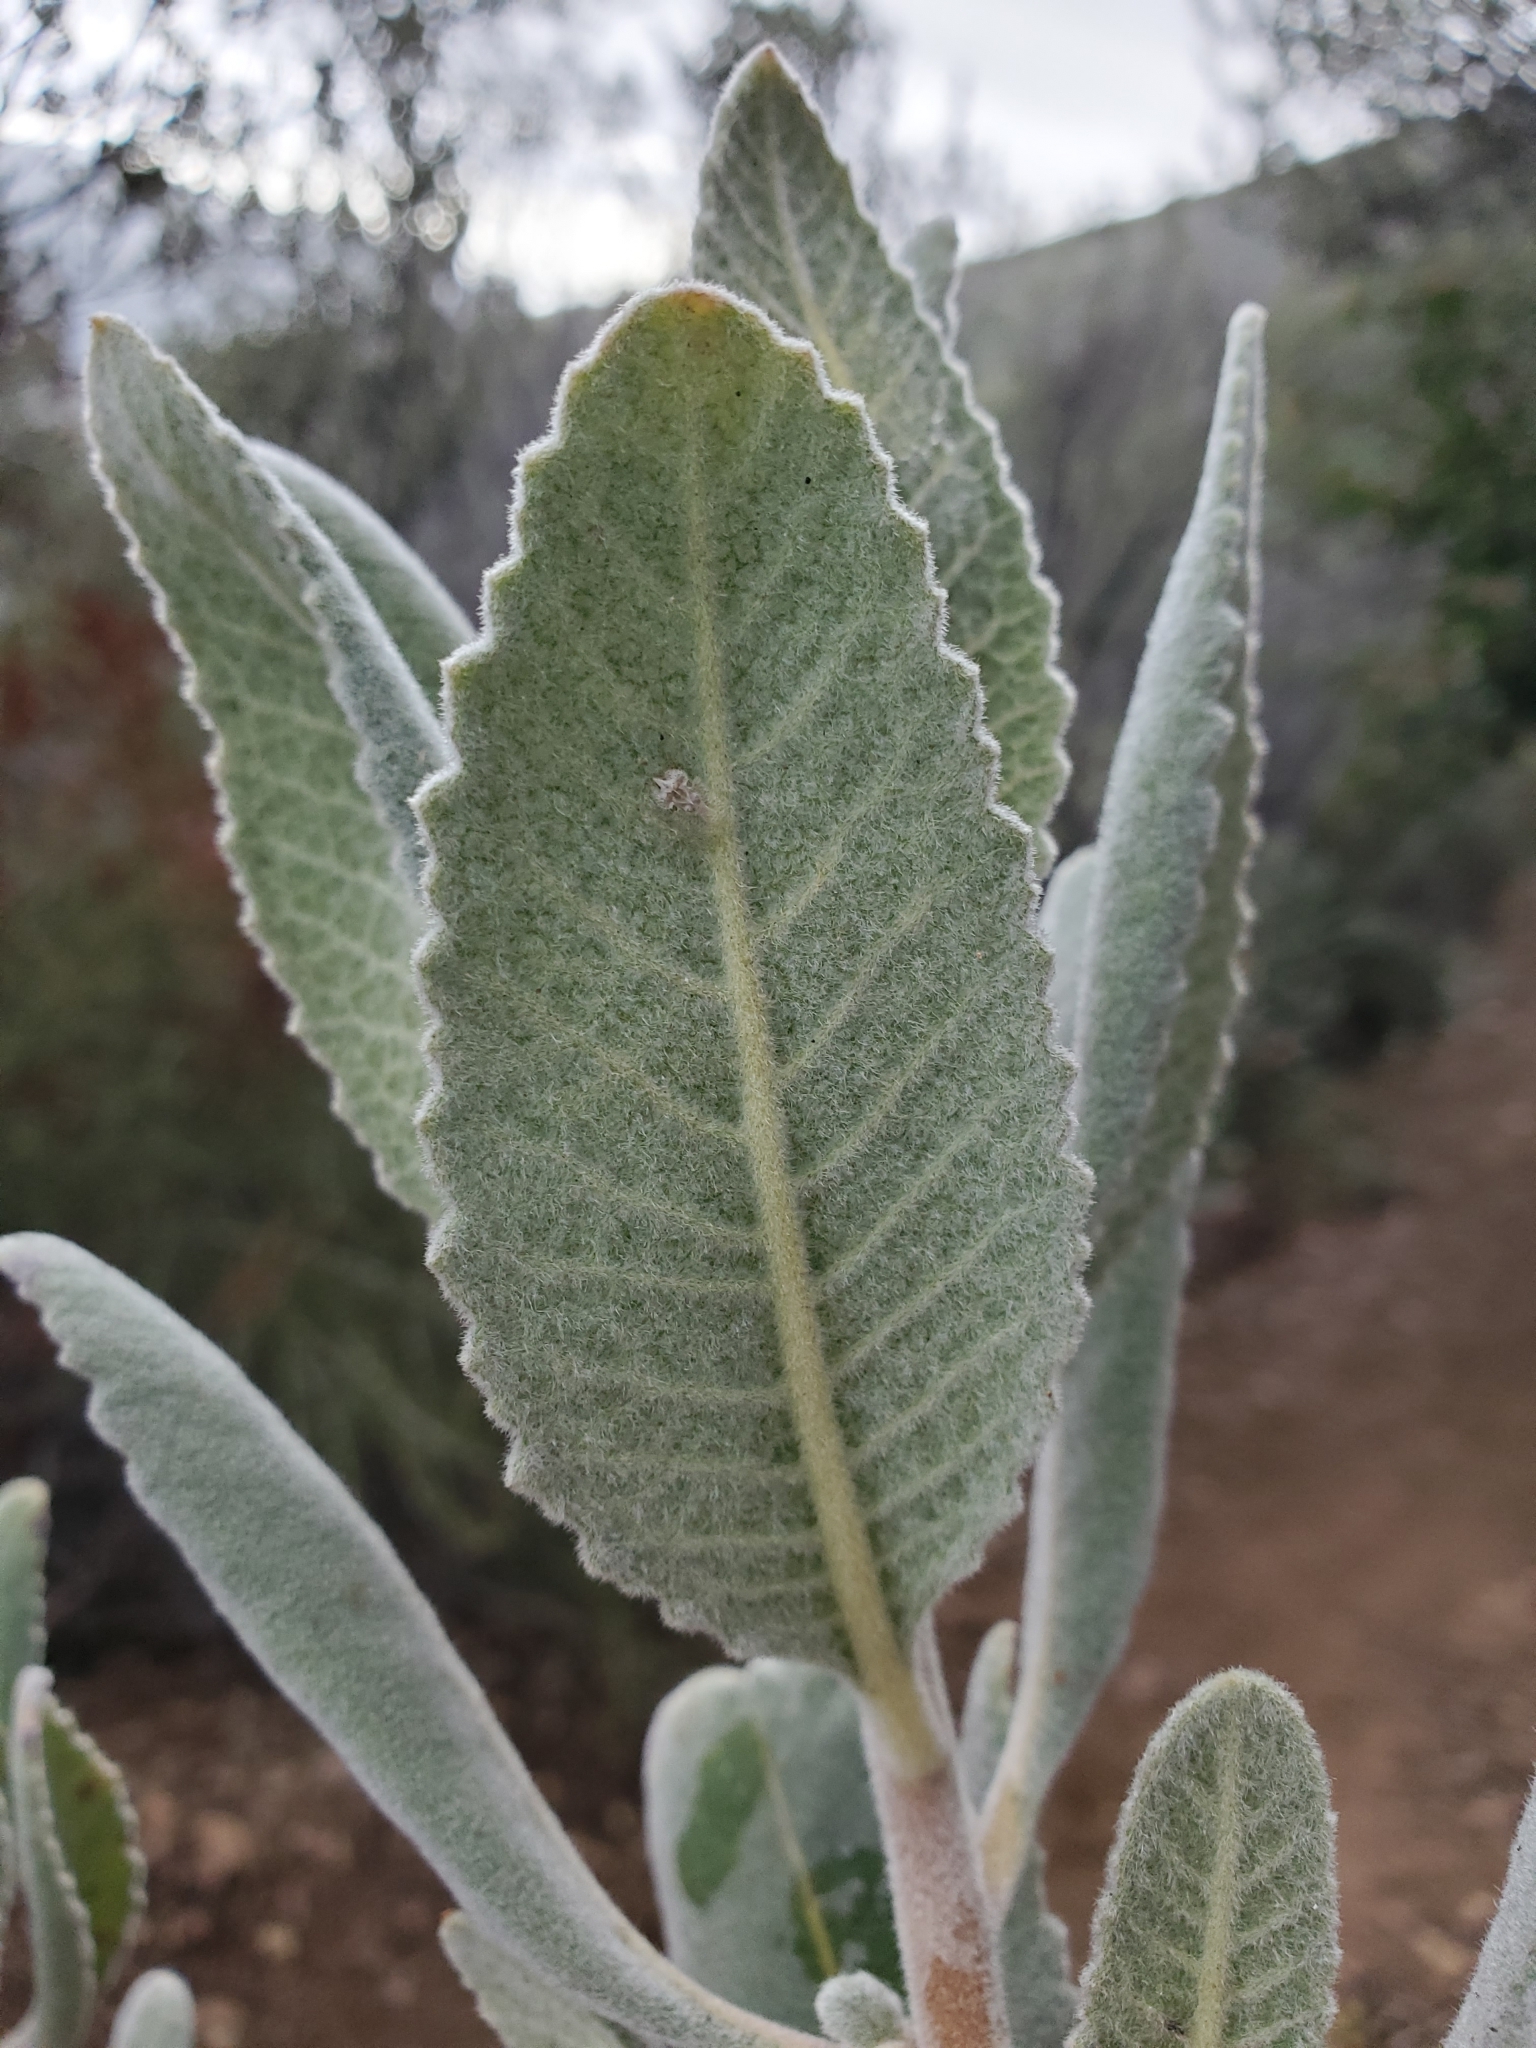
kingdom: Plantae
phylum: Tracheophyta
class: Magnoliopsida
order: Boraginales
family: Namaceae
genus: Eriodictyon
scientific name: Eriodictyon crassifolium
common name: Thick-leaf yerba-santa
